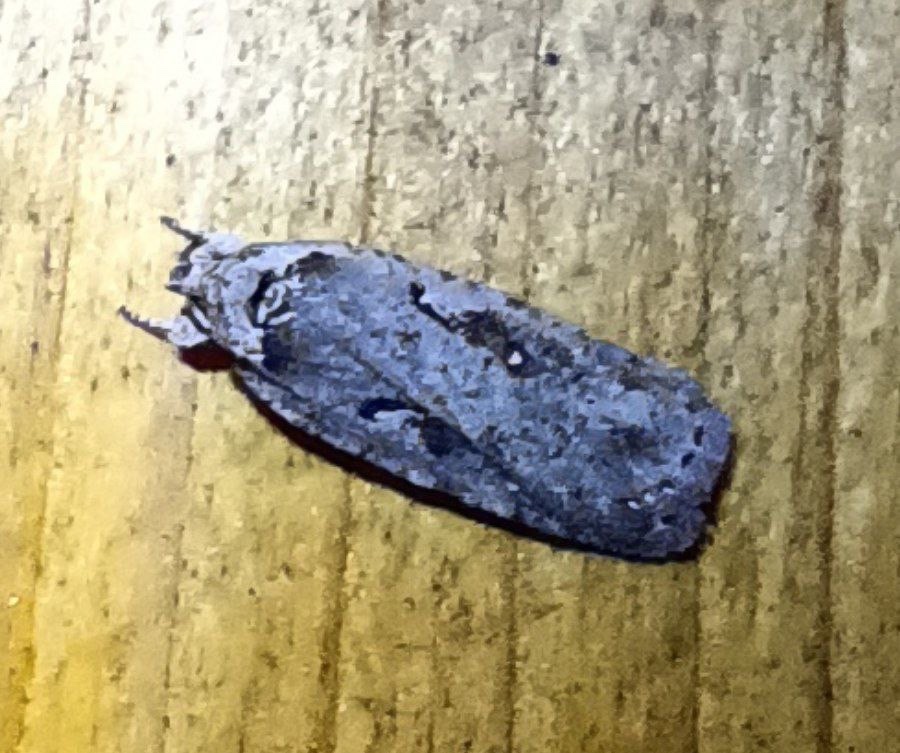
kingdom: Animalia
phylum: Arthropoda
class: Insecta
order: Lepidoptera
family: Depressariidae
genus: Agonopterix
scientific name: Agonopterix ocellana
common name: Red-letter flat-body
